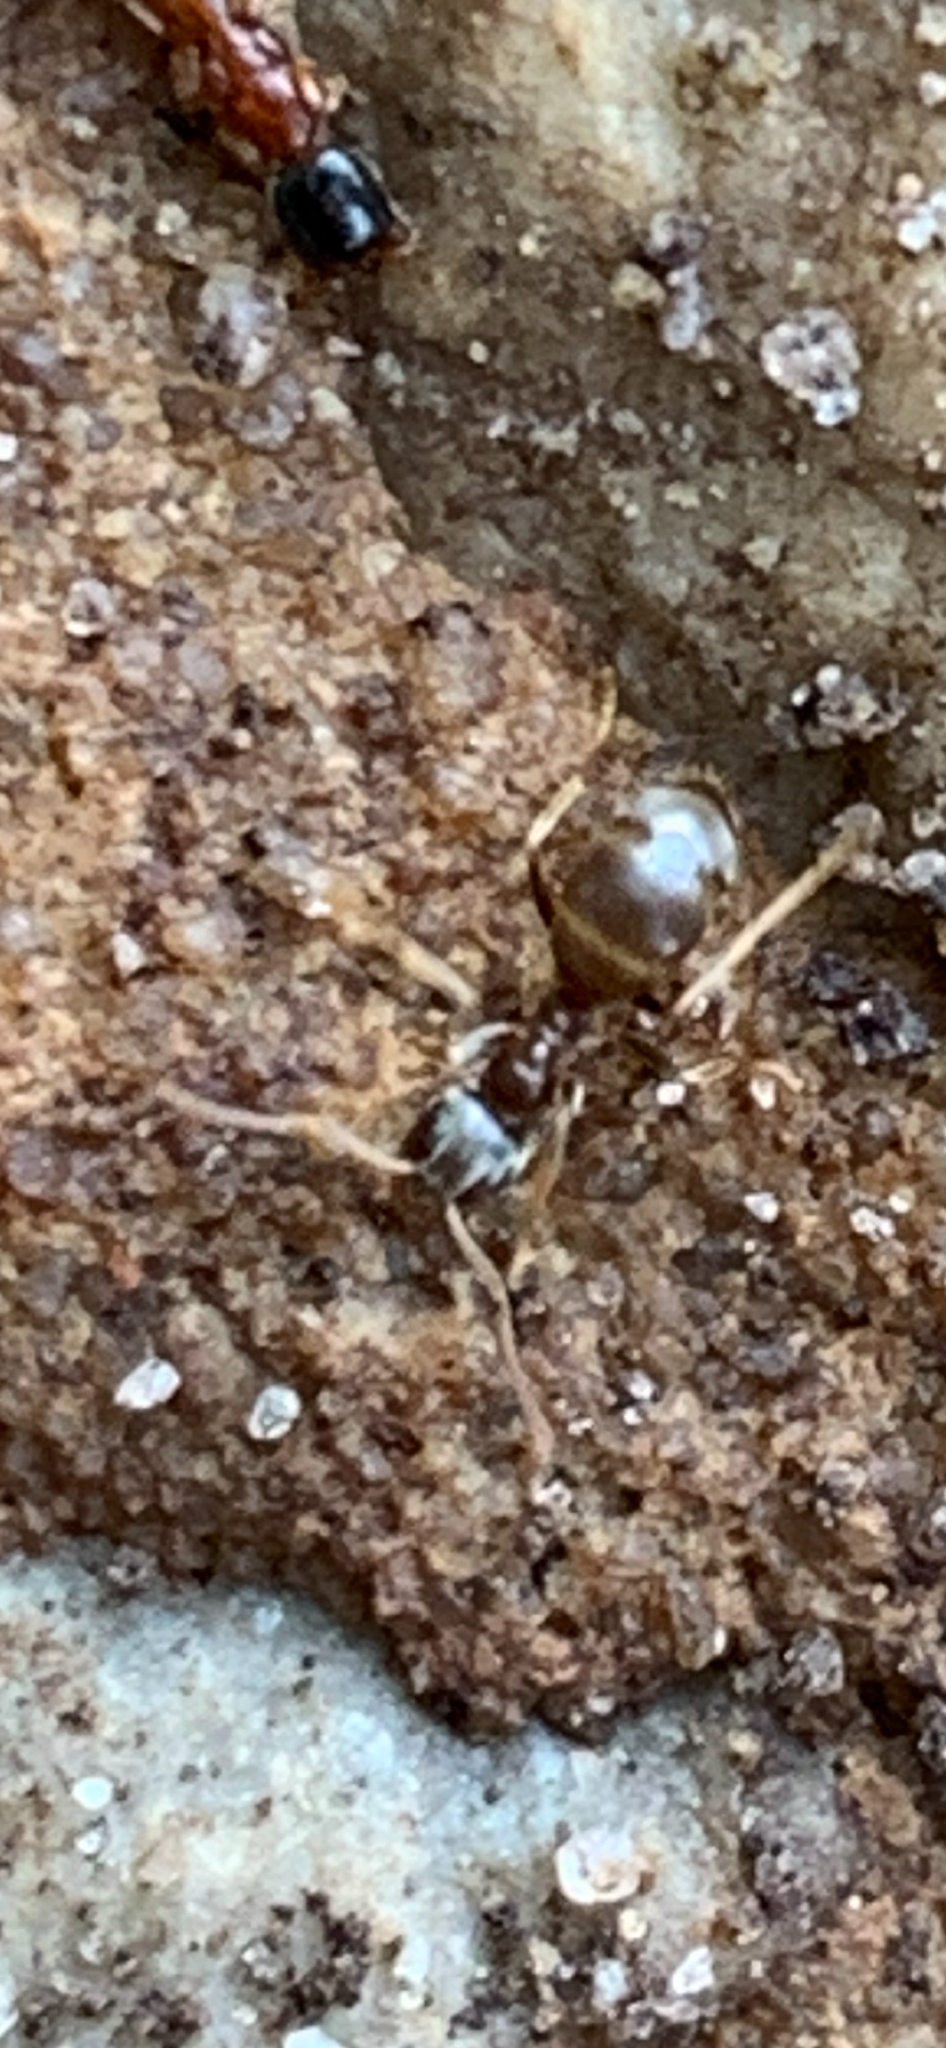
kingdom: Animalia
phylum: Arthropoda
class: Insecta
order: Hymenoptera
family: Formicidae
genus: Lasius
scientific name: Lasius
